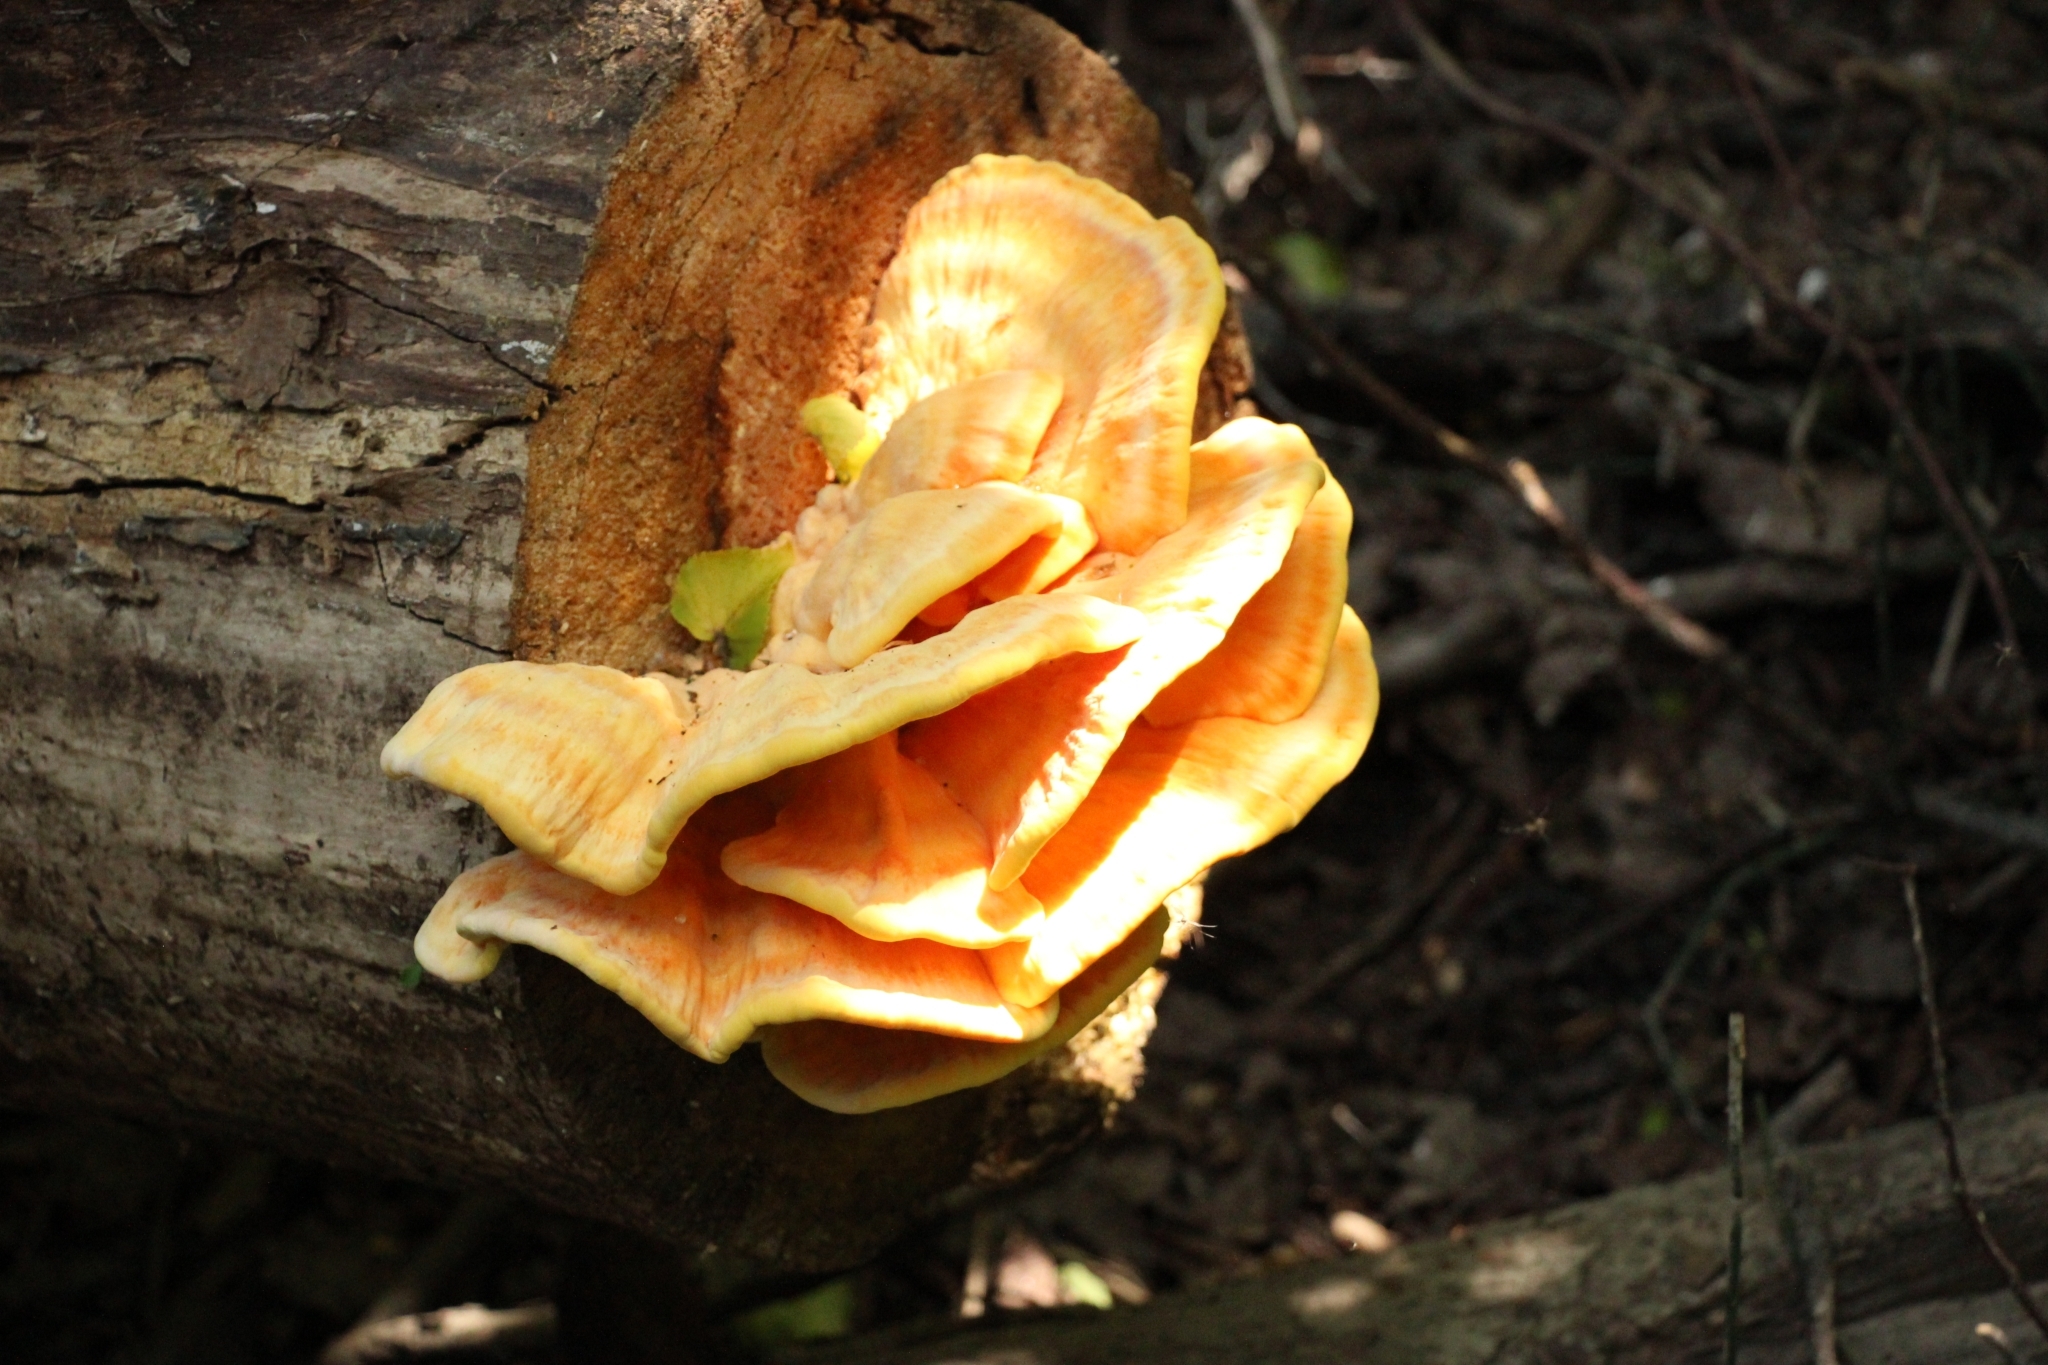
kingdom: Fungi
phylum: Basidiomycota
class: Agaricomycetes
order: Polyporales
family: Laetiporaceae
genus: Laetiporus
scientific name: Laetiporus sulphureus
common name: Chicken of the woods
